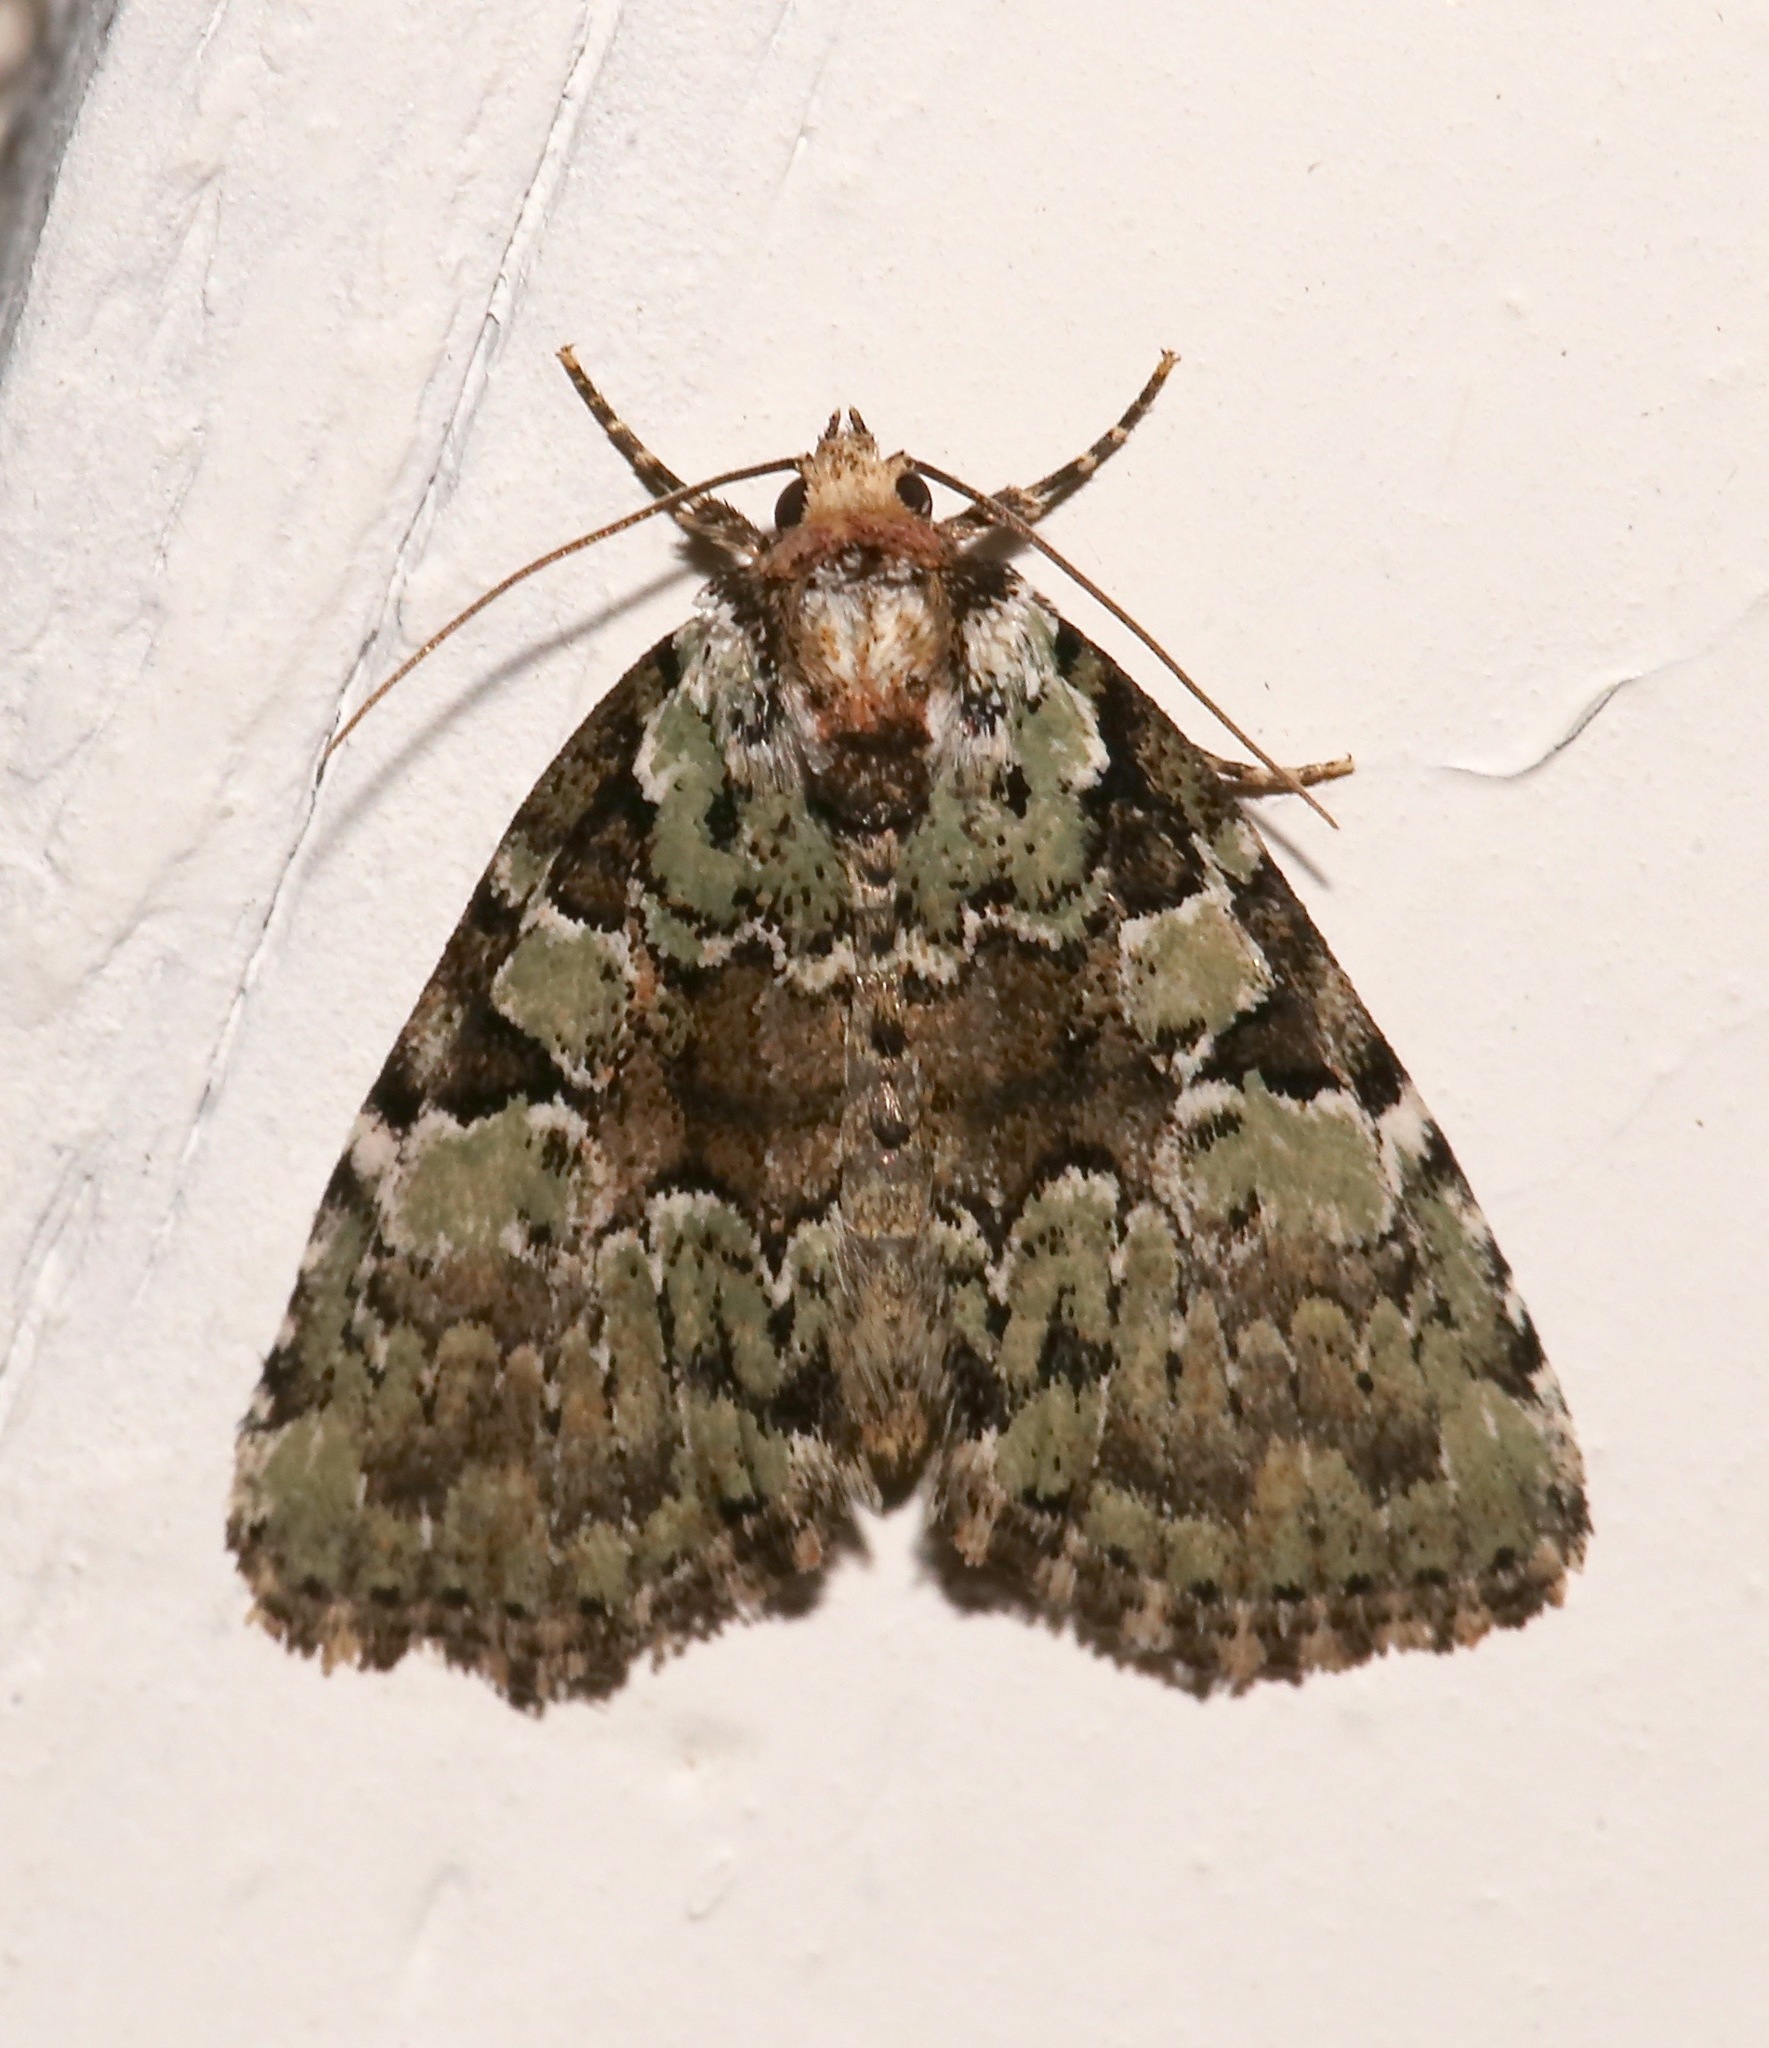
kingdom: Animalia
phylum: Arthropoda
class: Insecta
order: Lepidoptera
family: Noctuidae
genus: Leuconycta
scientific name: Leuconycta lepidula
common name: Marbled-green leuconycta moth
